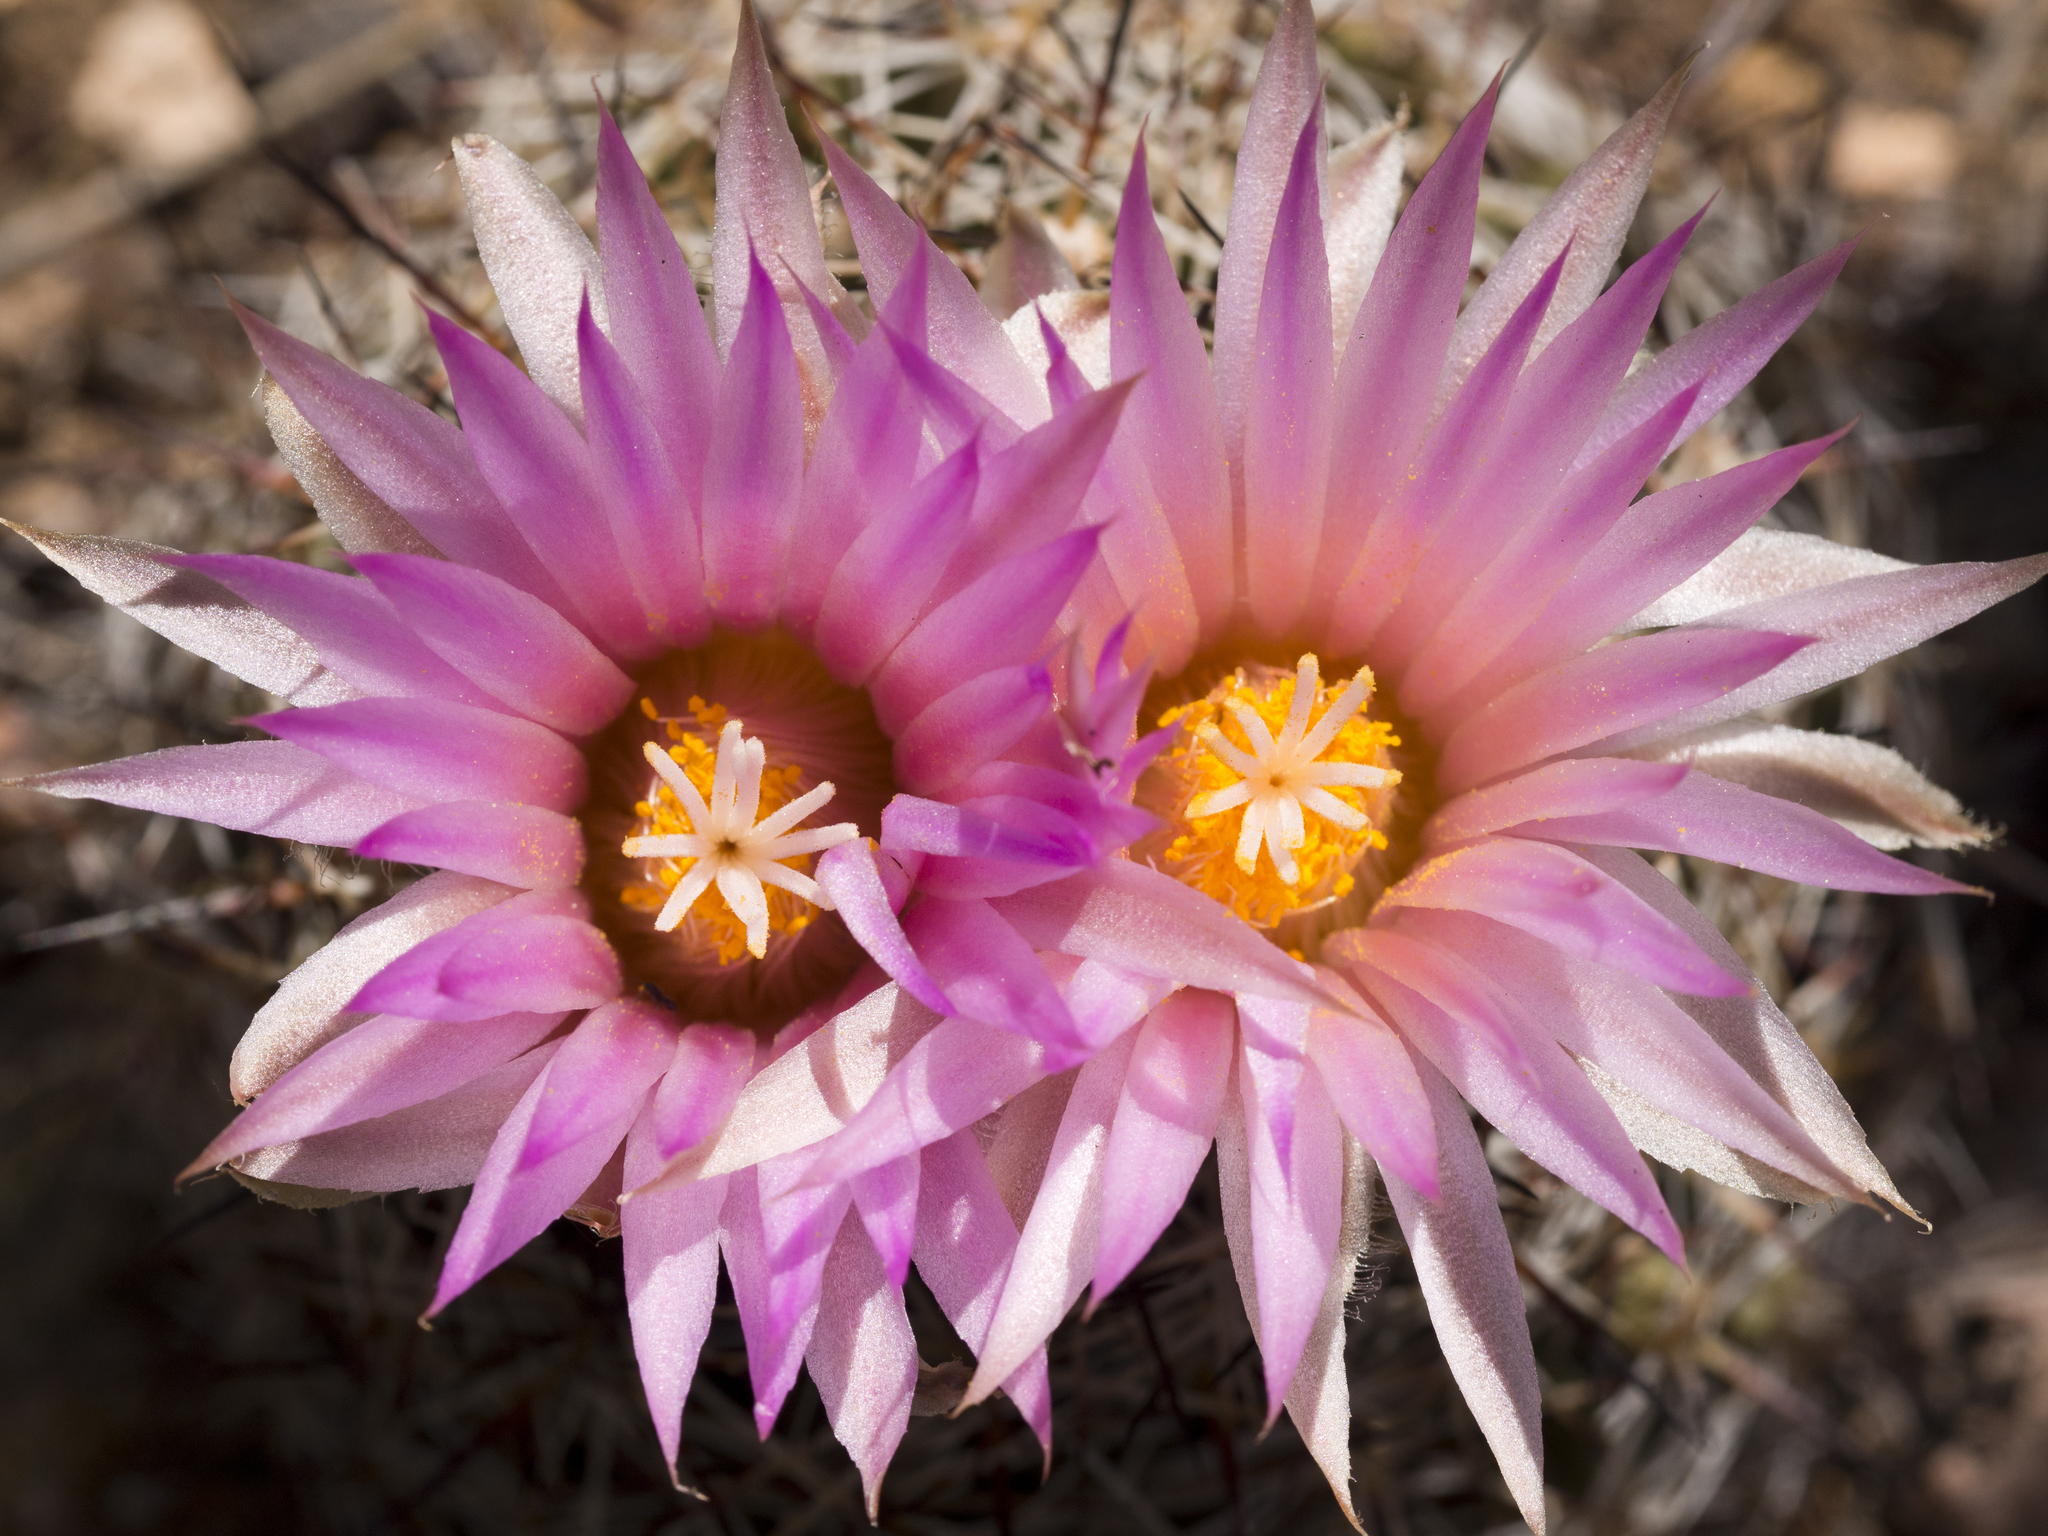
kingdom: Plantae
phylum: Tracheophyta
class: Magnoliopsida
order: Caryophyllales
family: Cactaceae
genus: Pelecyphora
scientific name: Pelecyphora vivipara
